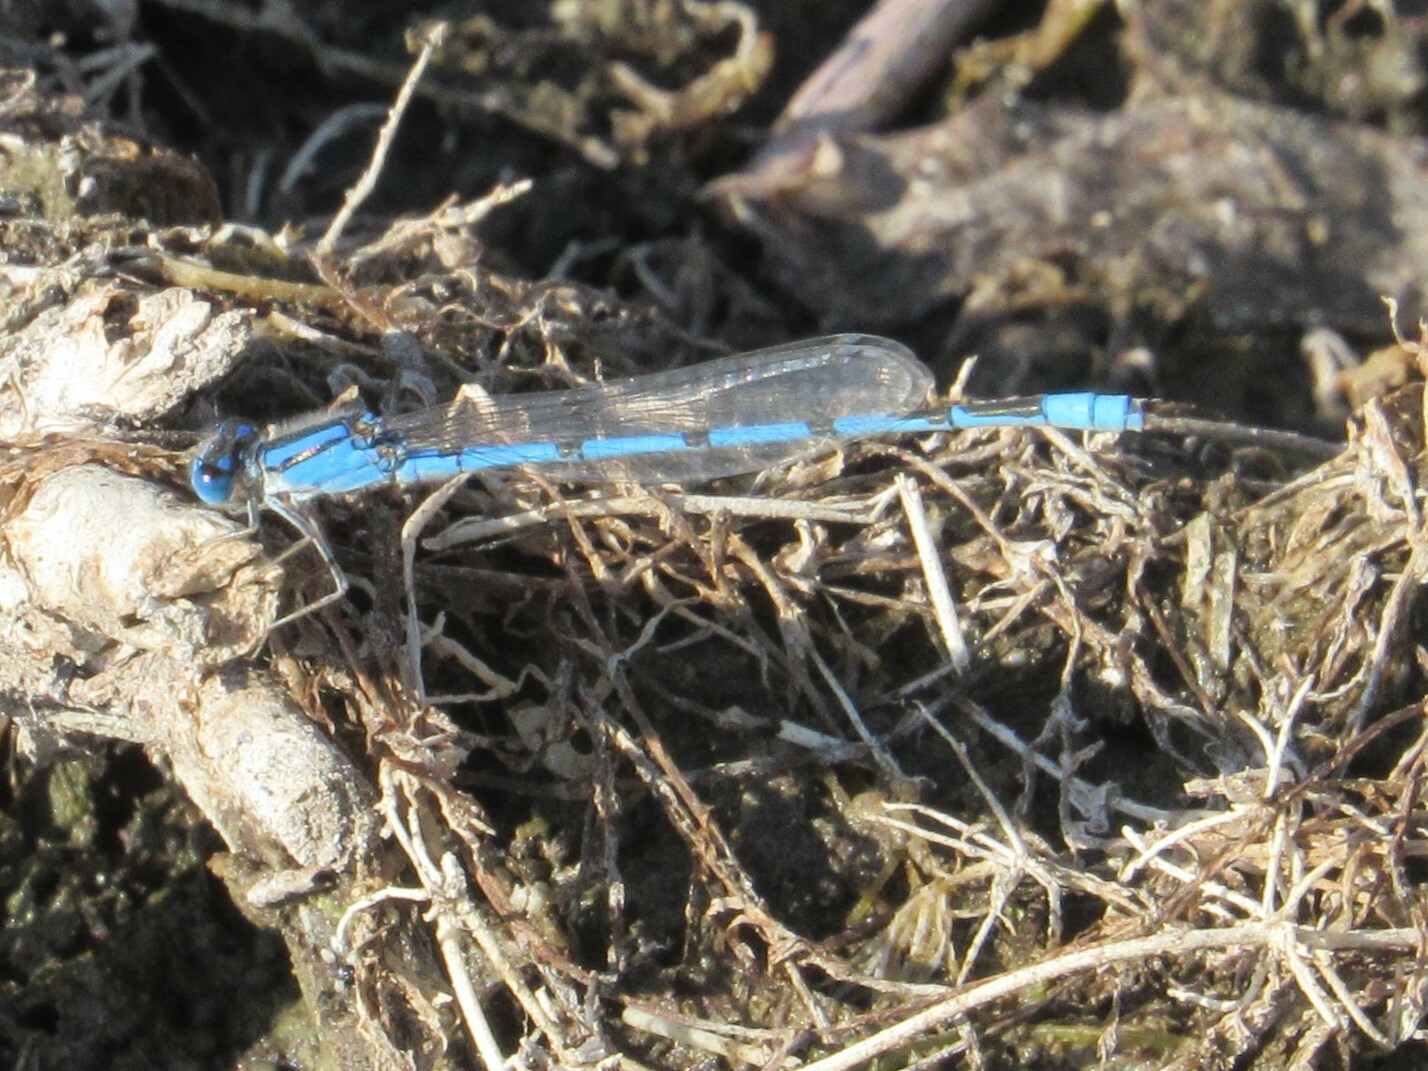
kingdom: Animalia
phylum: Arthropoda
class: Insecta
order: Odonata
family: Coenagrionidae
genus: Enallagma
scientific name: Enallagma civile
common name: Damselfly
